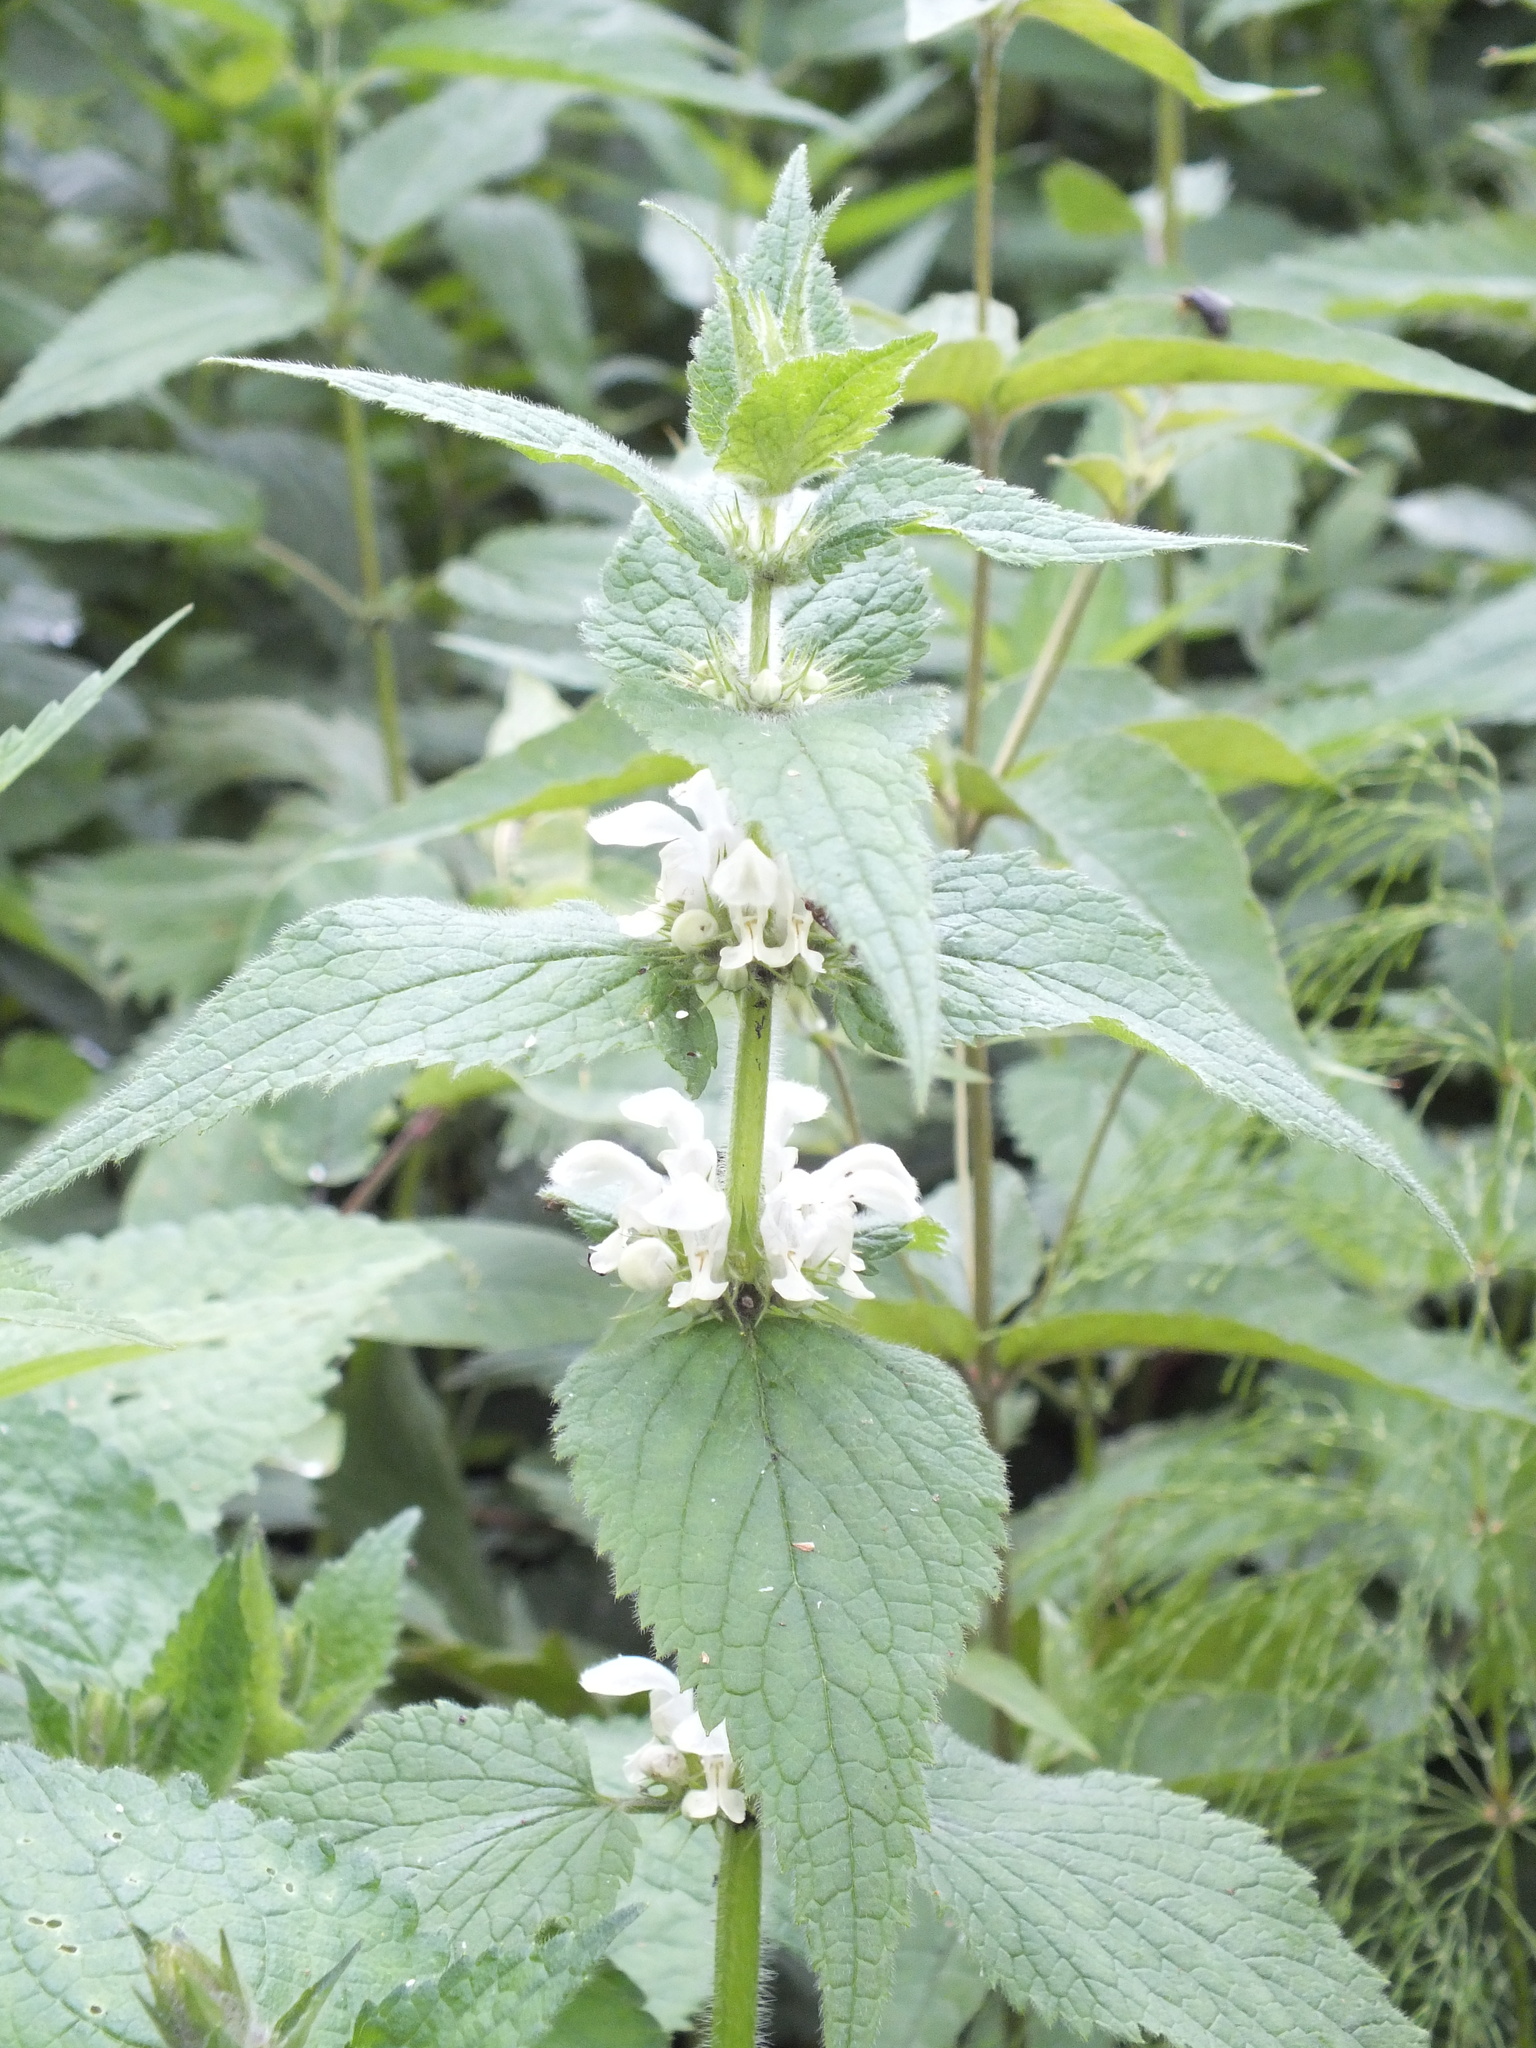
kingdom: Plantae
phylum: Tracheophyta
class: Magnoliopsida
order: Lamiales
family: Lamiaceae
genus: Lamium
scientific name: Lamium album
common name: White dead-nettle
